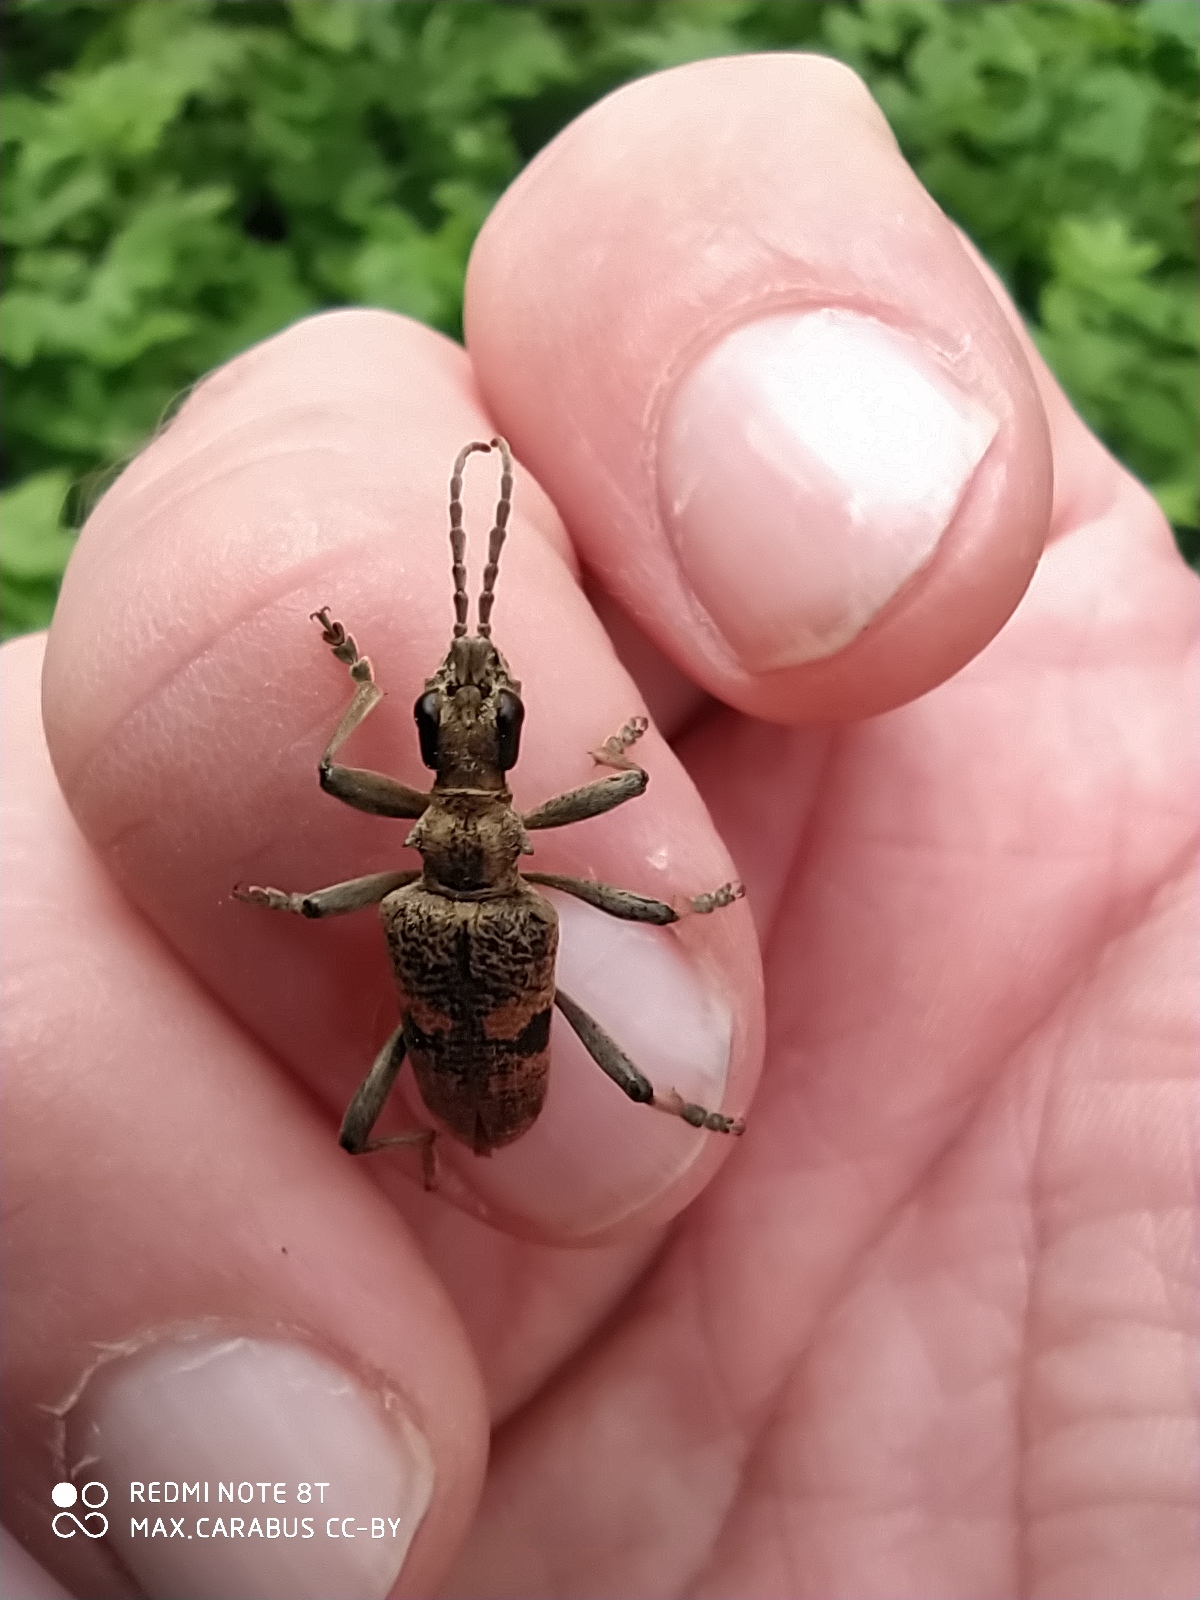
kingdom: Animalia
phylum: Arthropoda
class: Insecta
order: Coleoptera
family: Cerambycidae
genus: Rhagium
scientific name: Rhagium mordax
